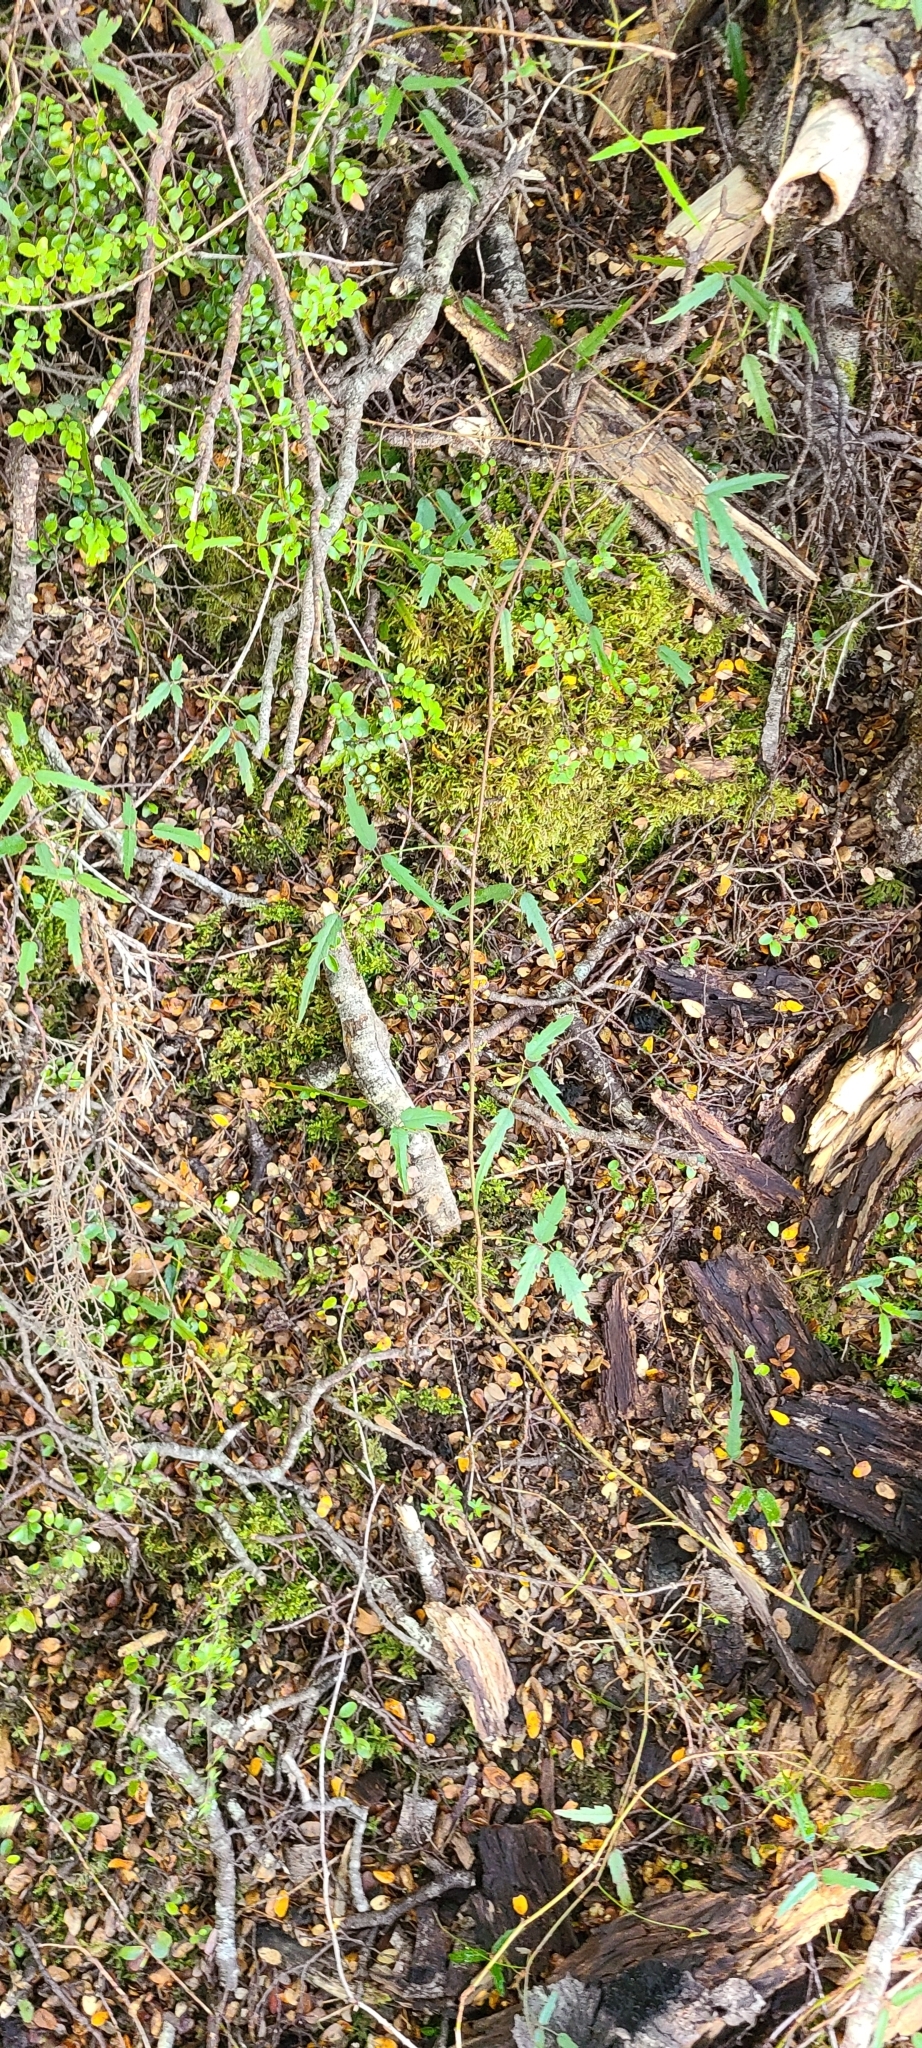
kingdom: Plantae
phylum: Tracheophyta
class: Magnoliopsida
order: Rosales
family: Rosaceae
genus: Rubus
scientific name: Rubus schmidelioides
